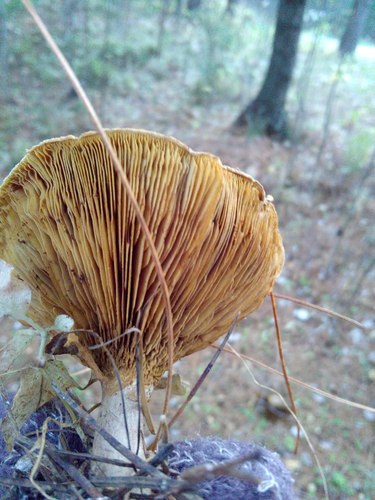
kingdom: Fungi
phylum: Basidiomycota
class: Agaricomycetes
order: Boletales
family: Paxillaceae
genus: Paxillus
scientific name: Paxillus involutus
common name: Brown roll rim
